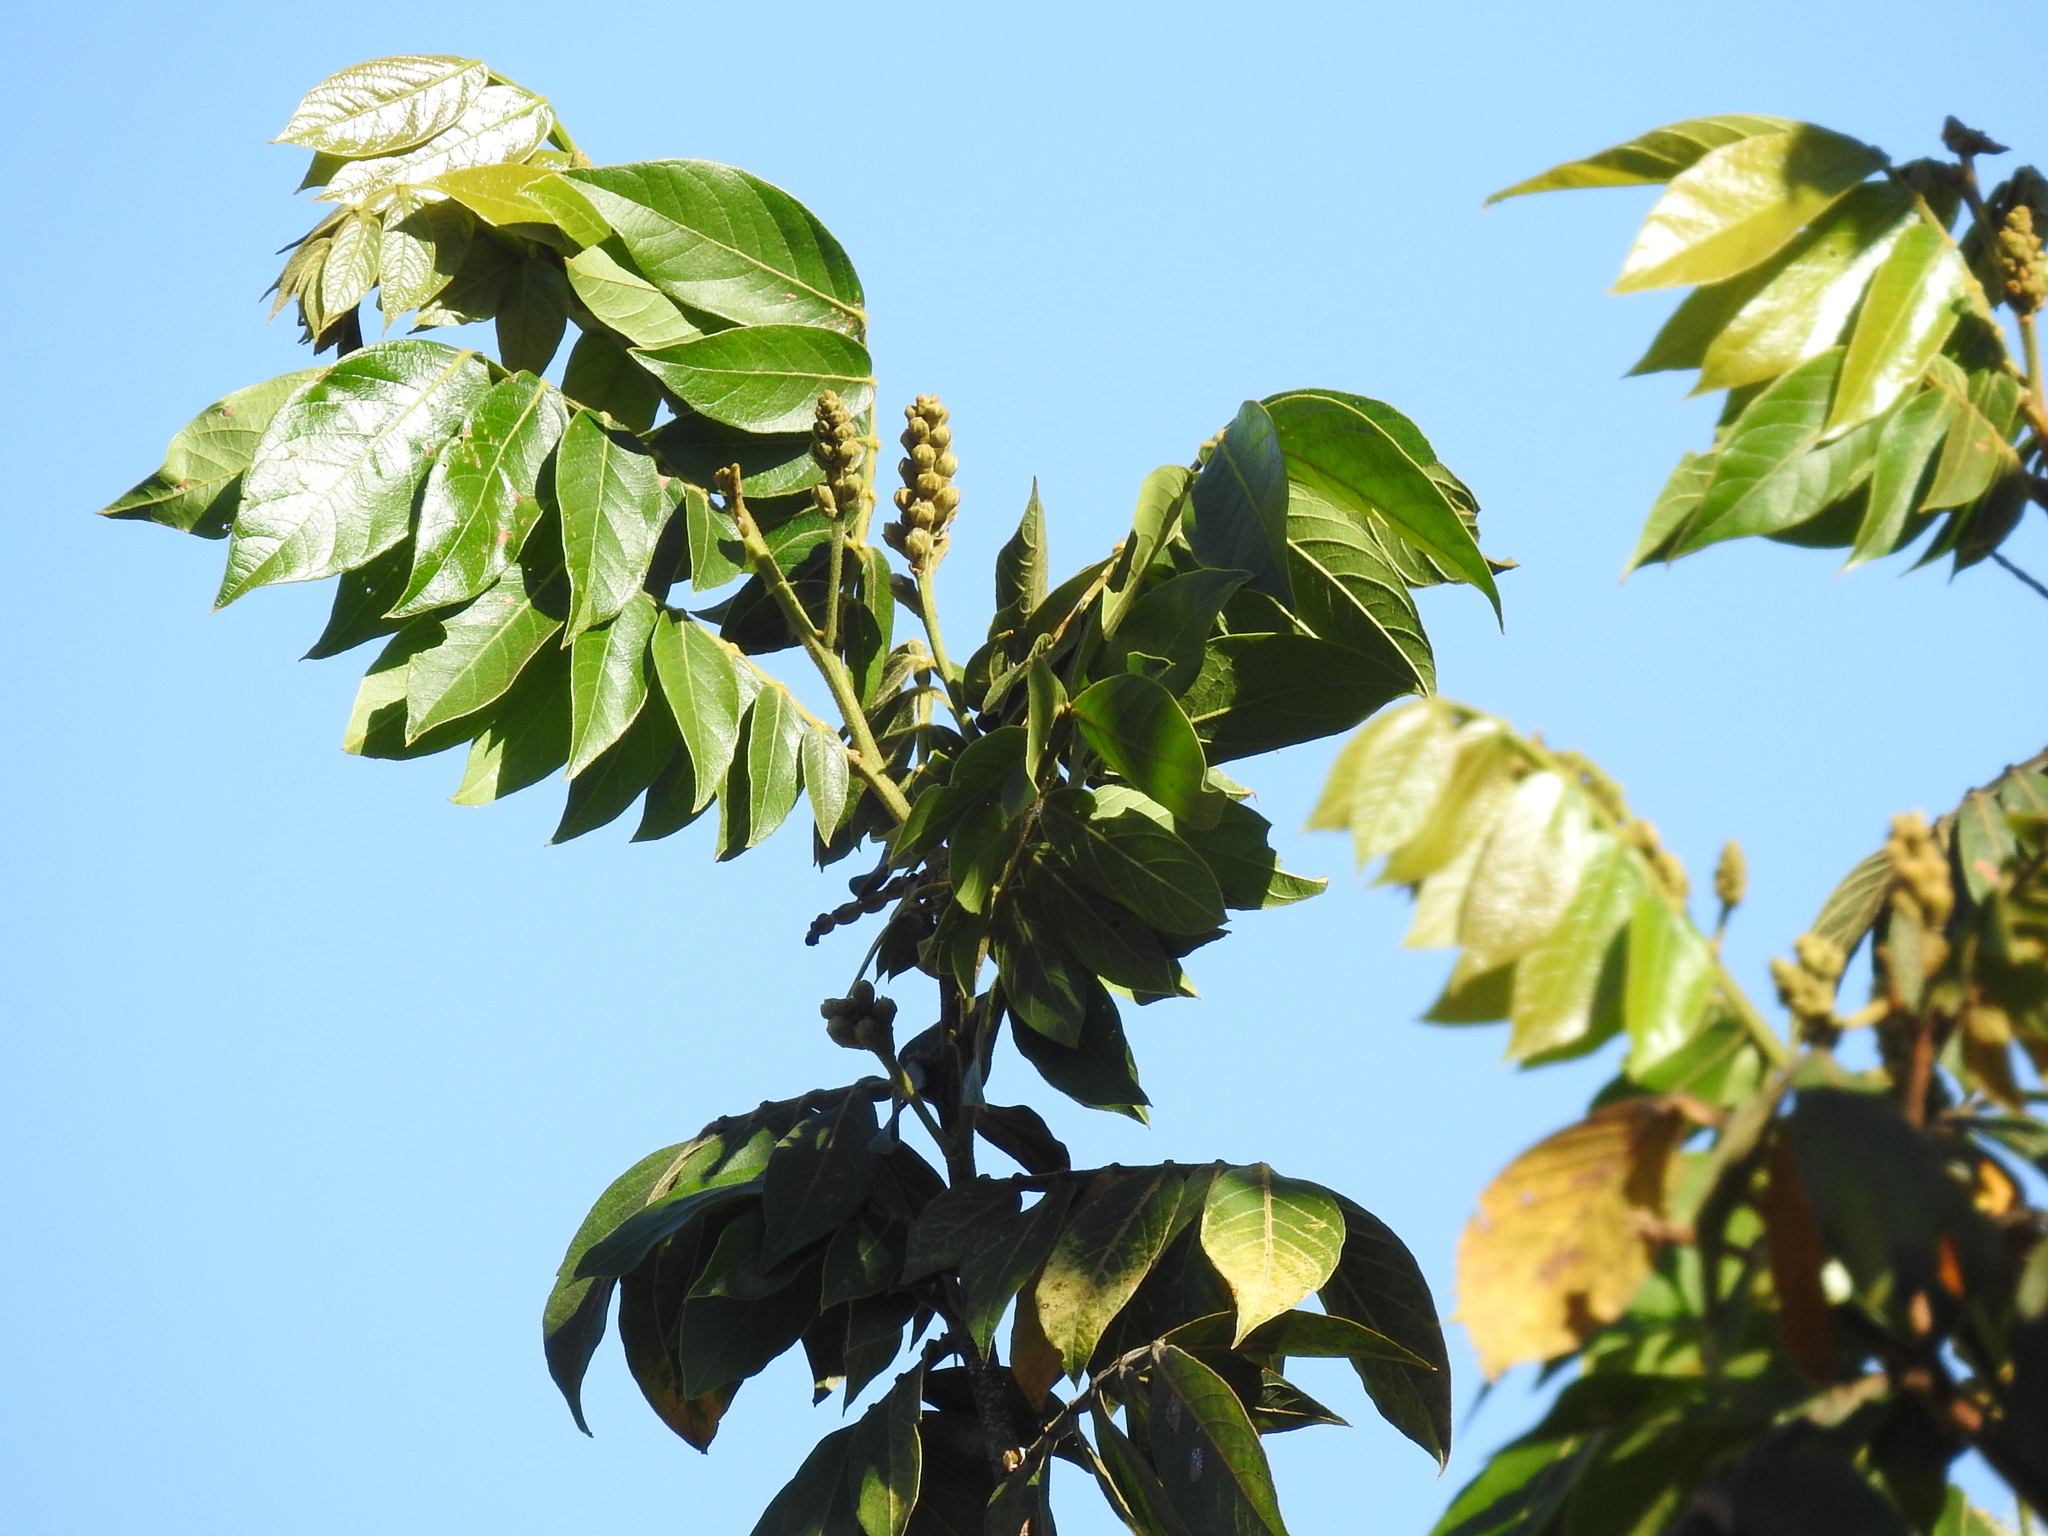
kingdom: Plantae
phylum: Tracheophyta
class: Magnoliopsida
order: Fabales
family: Fabaceae
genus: Inga
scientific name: Inga uraguensis
